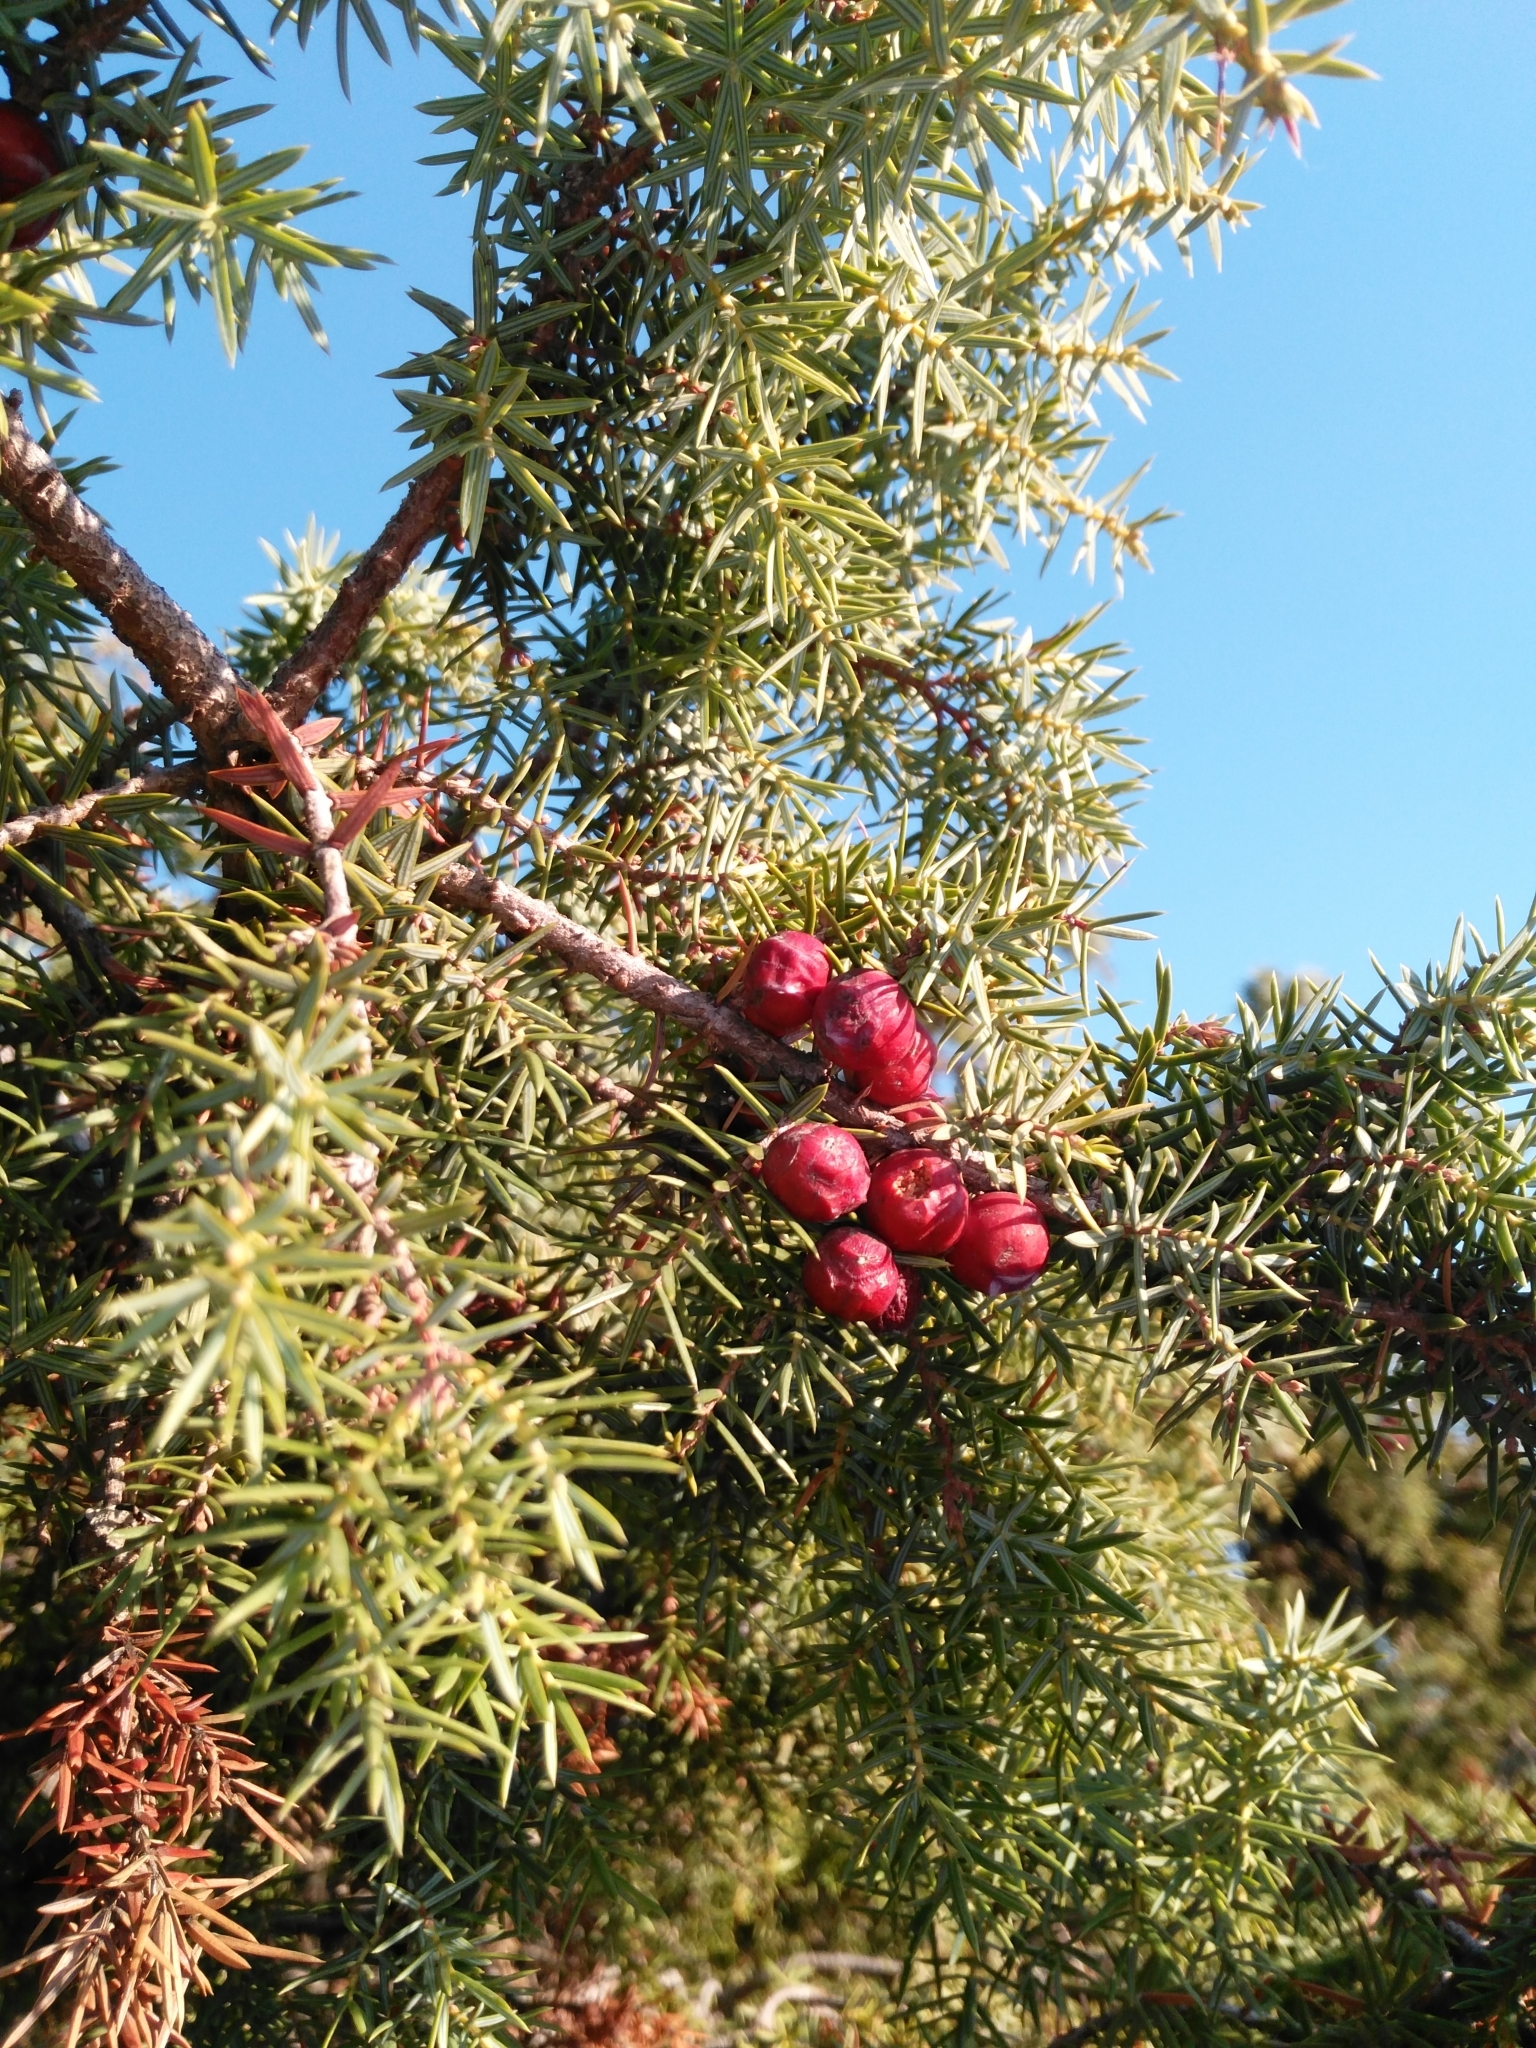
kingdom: Plantae
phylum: Tracheophyta
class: Pinopsida
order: Pinales
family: Cupressaceae
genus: Juniperus
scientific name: Juniperus oxycedrus
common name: Prickly juniper
